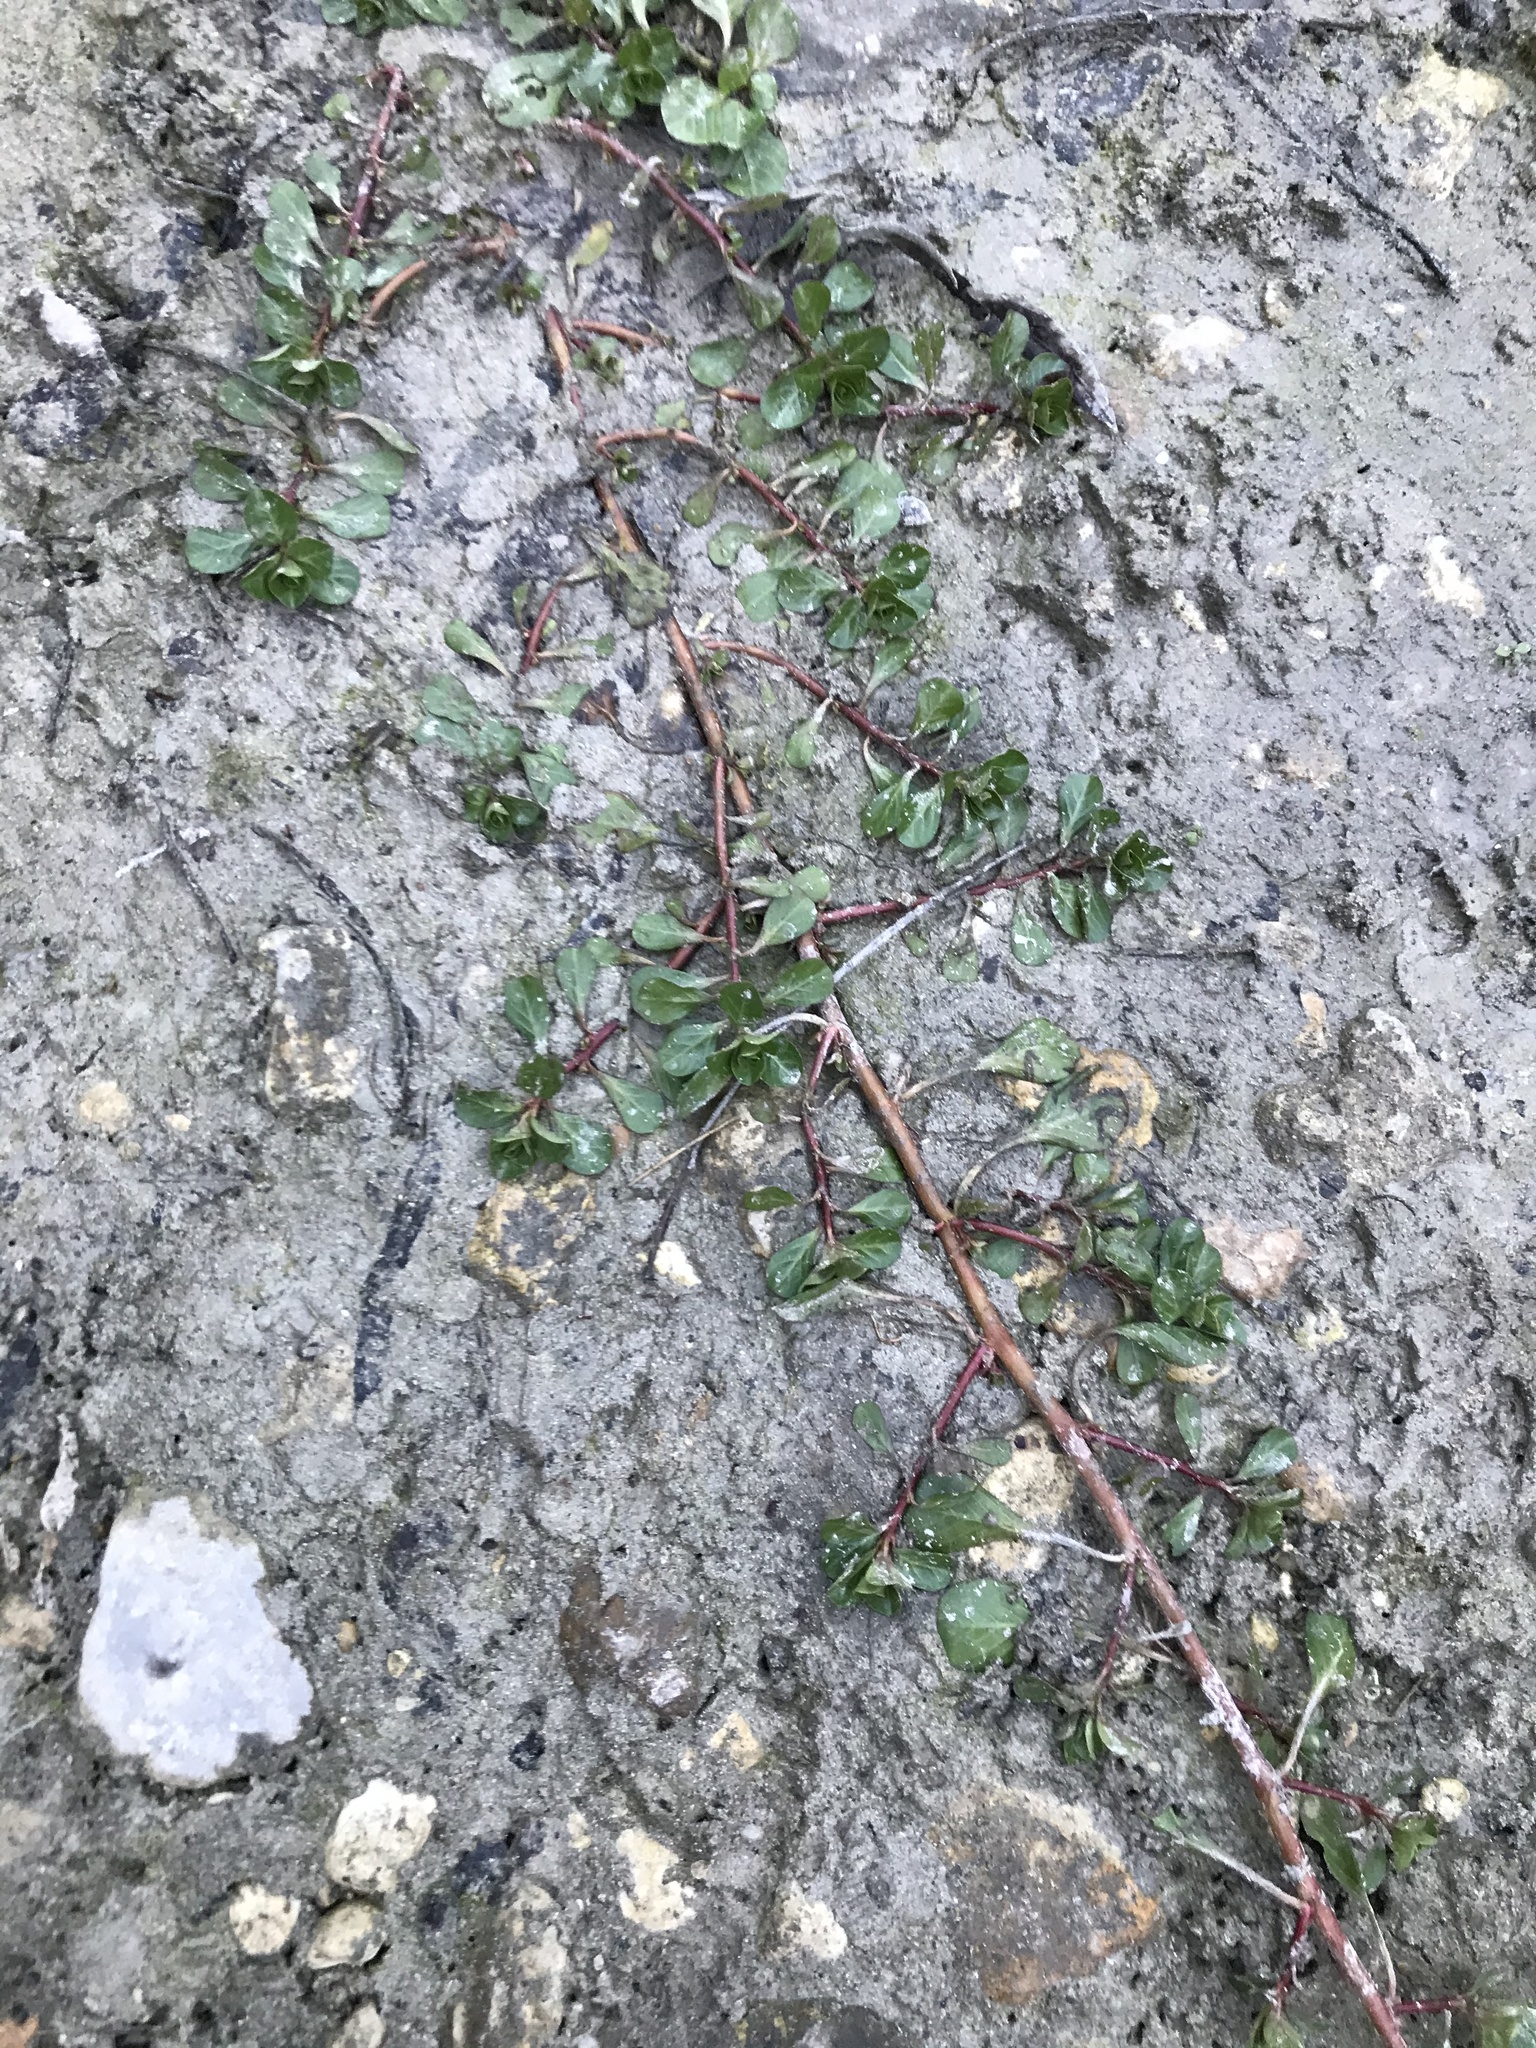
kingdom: Plantae
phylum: Tracheophyta
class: Magnoliopsida
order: Myrtales
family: Onagraceae
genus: Ludwigia
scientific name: Ludwigia palustris
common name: Hampshire-purslane
